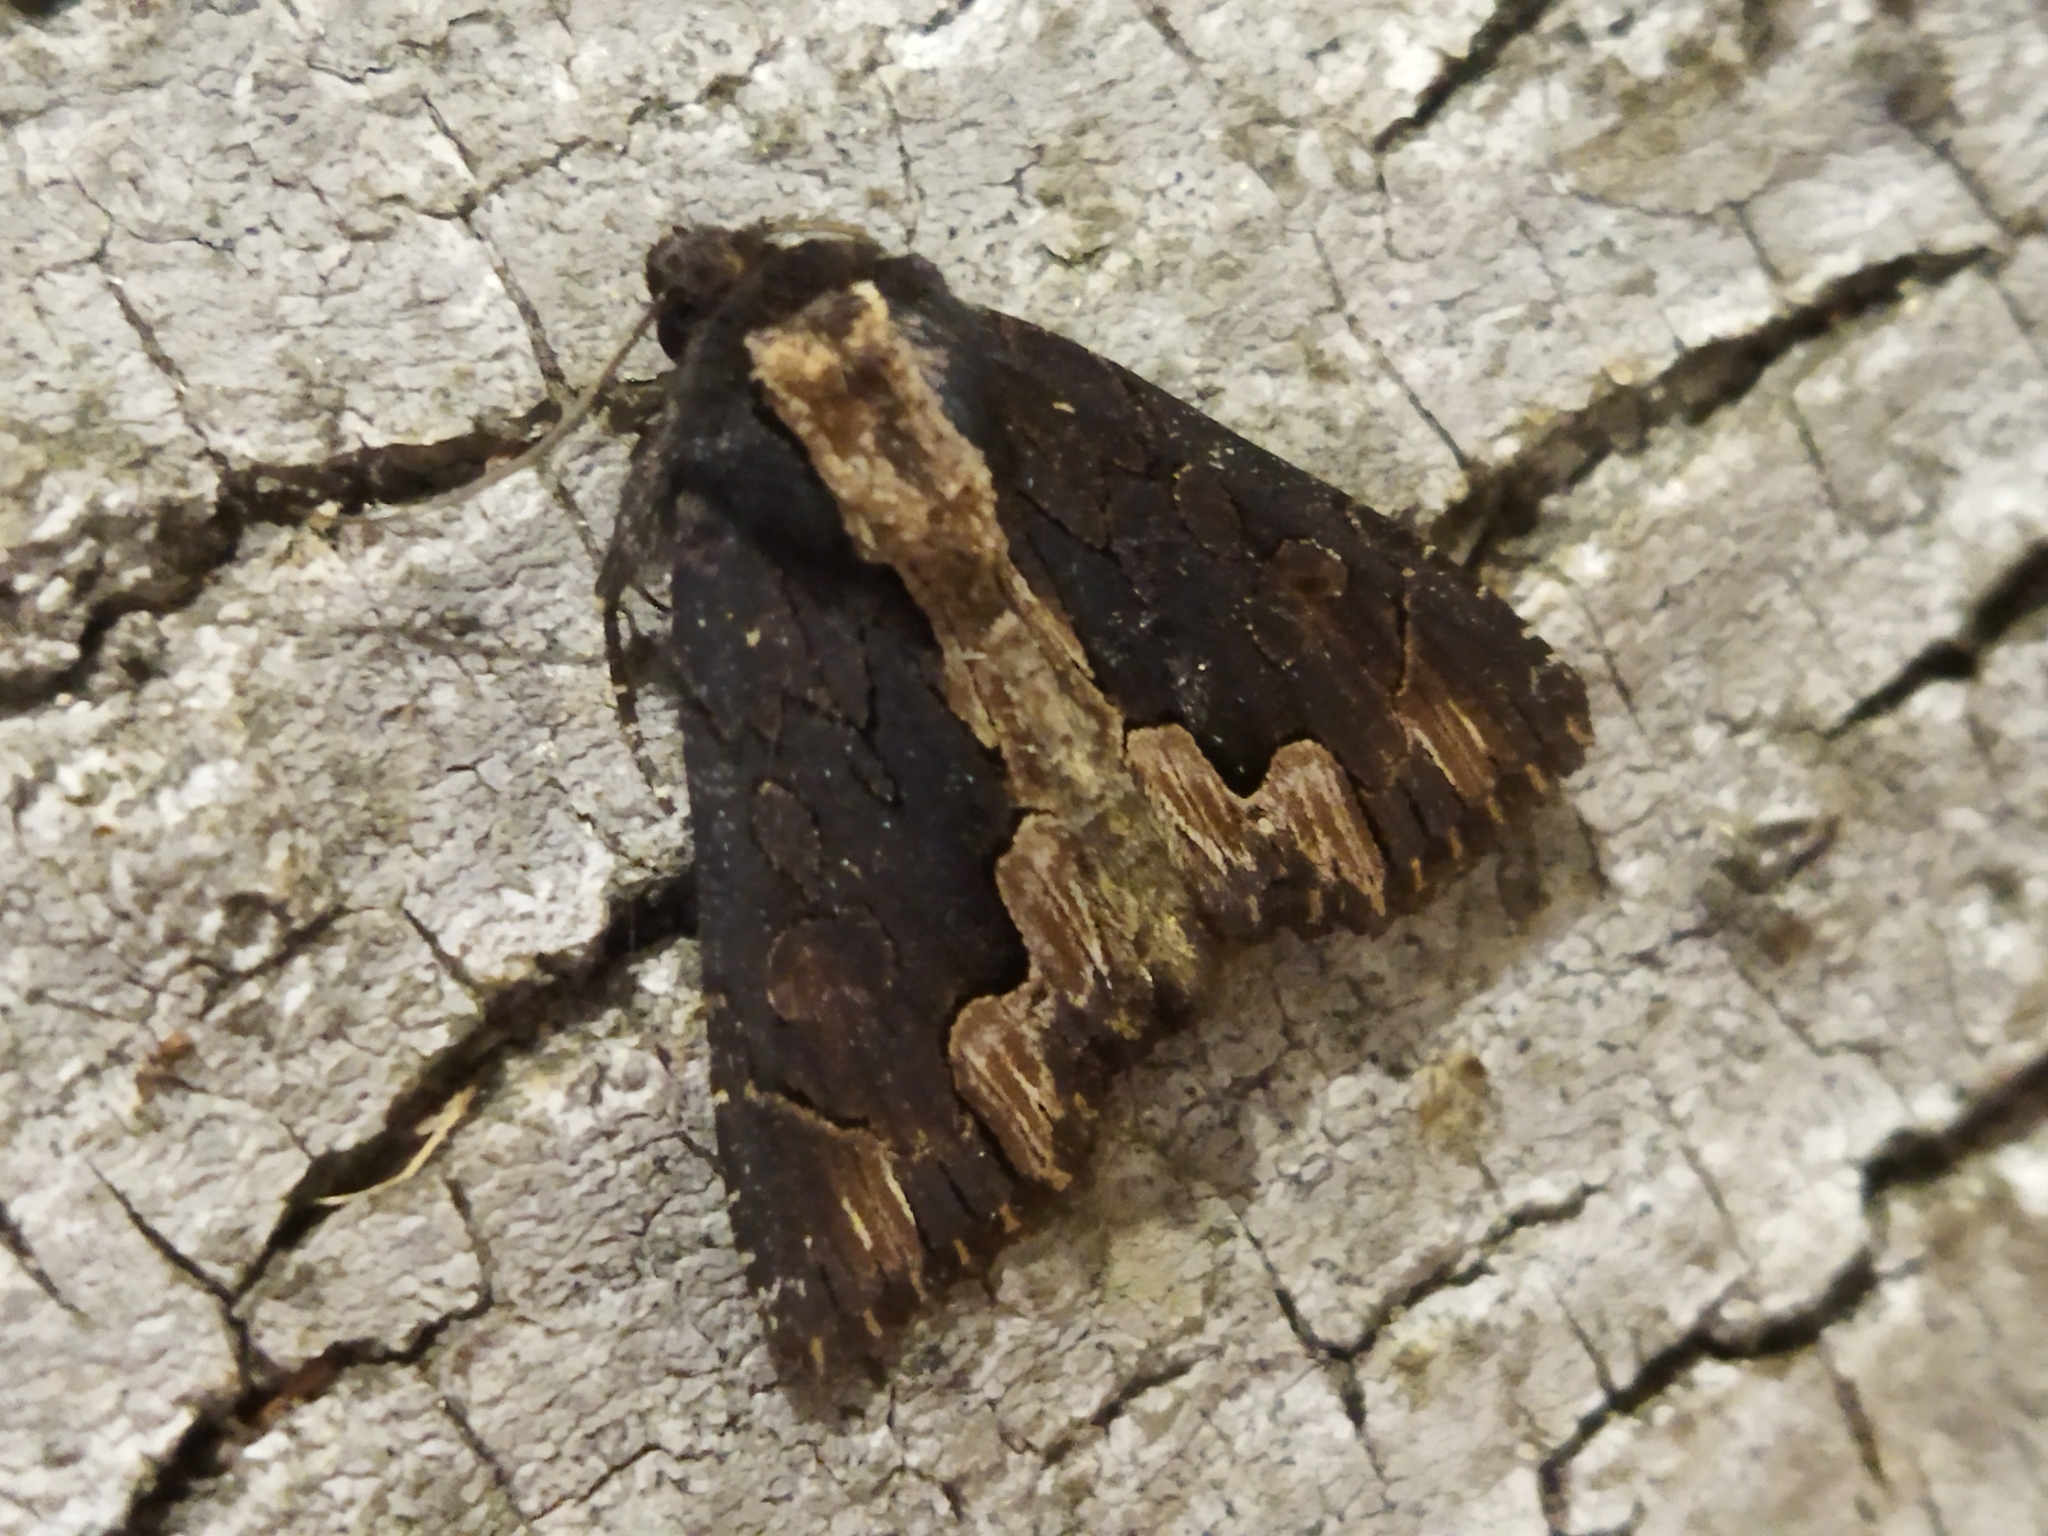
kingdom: Animalia
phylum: Arthropoda
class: Insecta
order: Lepidoptera
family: Noctuidae
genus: Dypterygia
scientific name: Dypterygia scabriuscula
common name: Bird's wing
